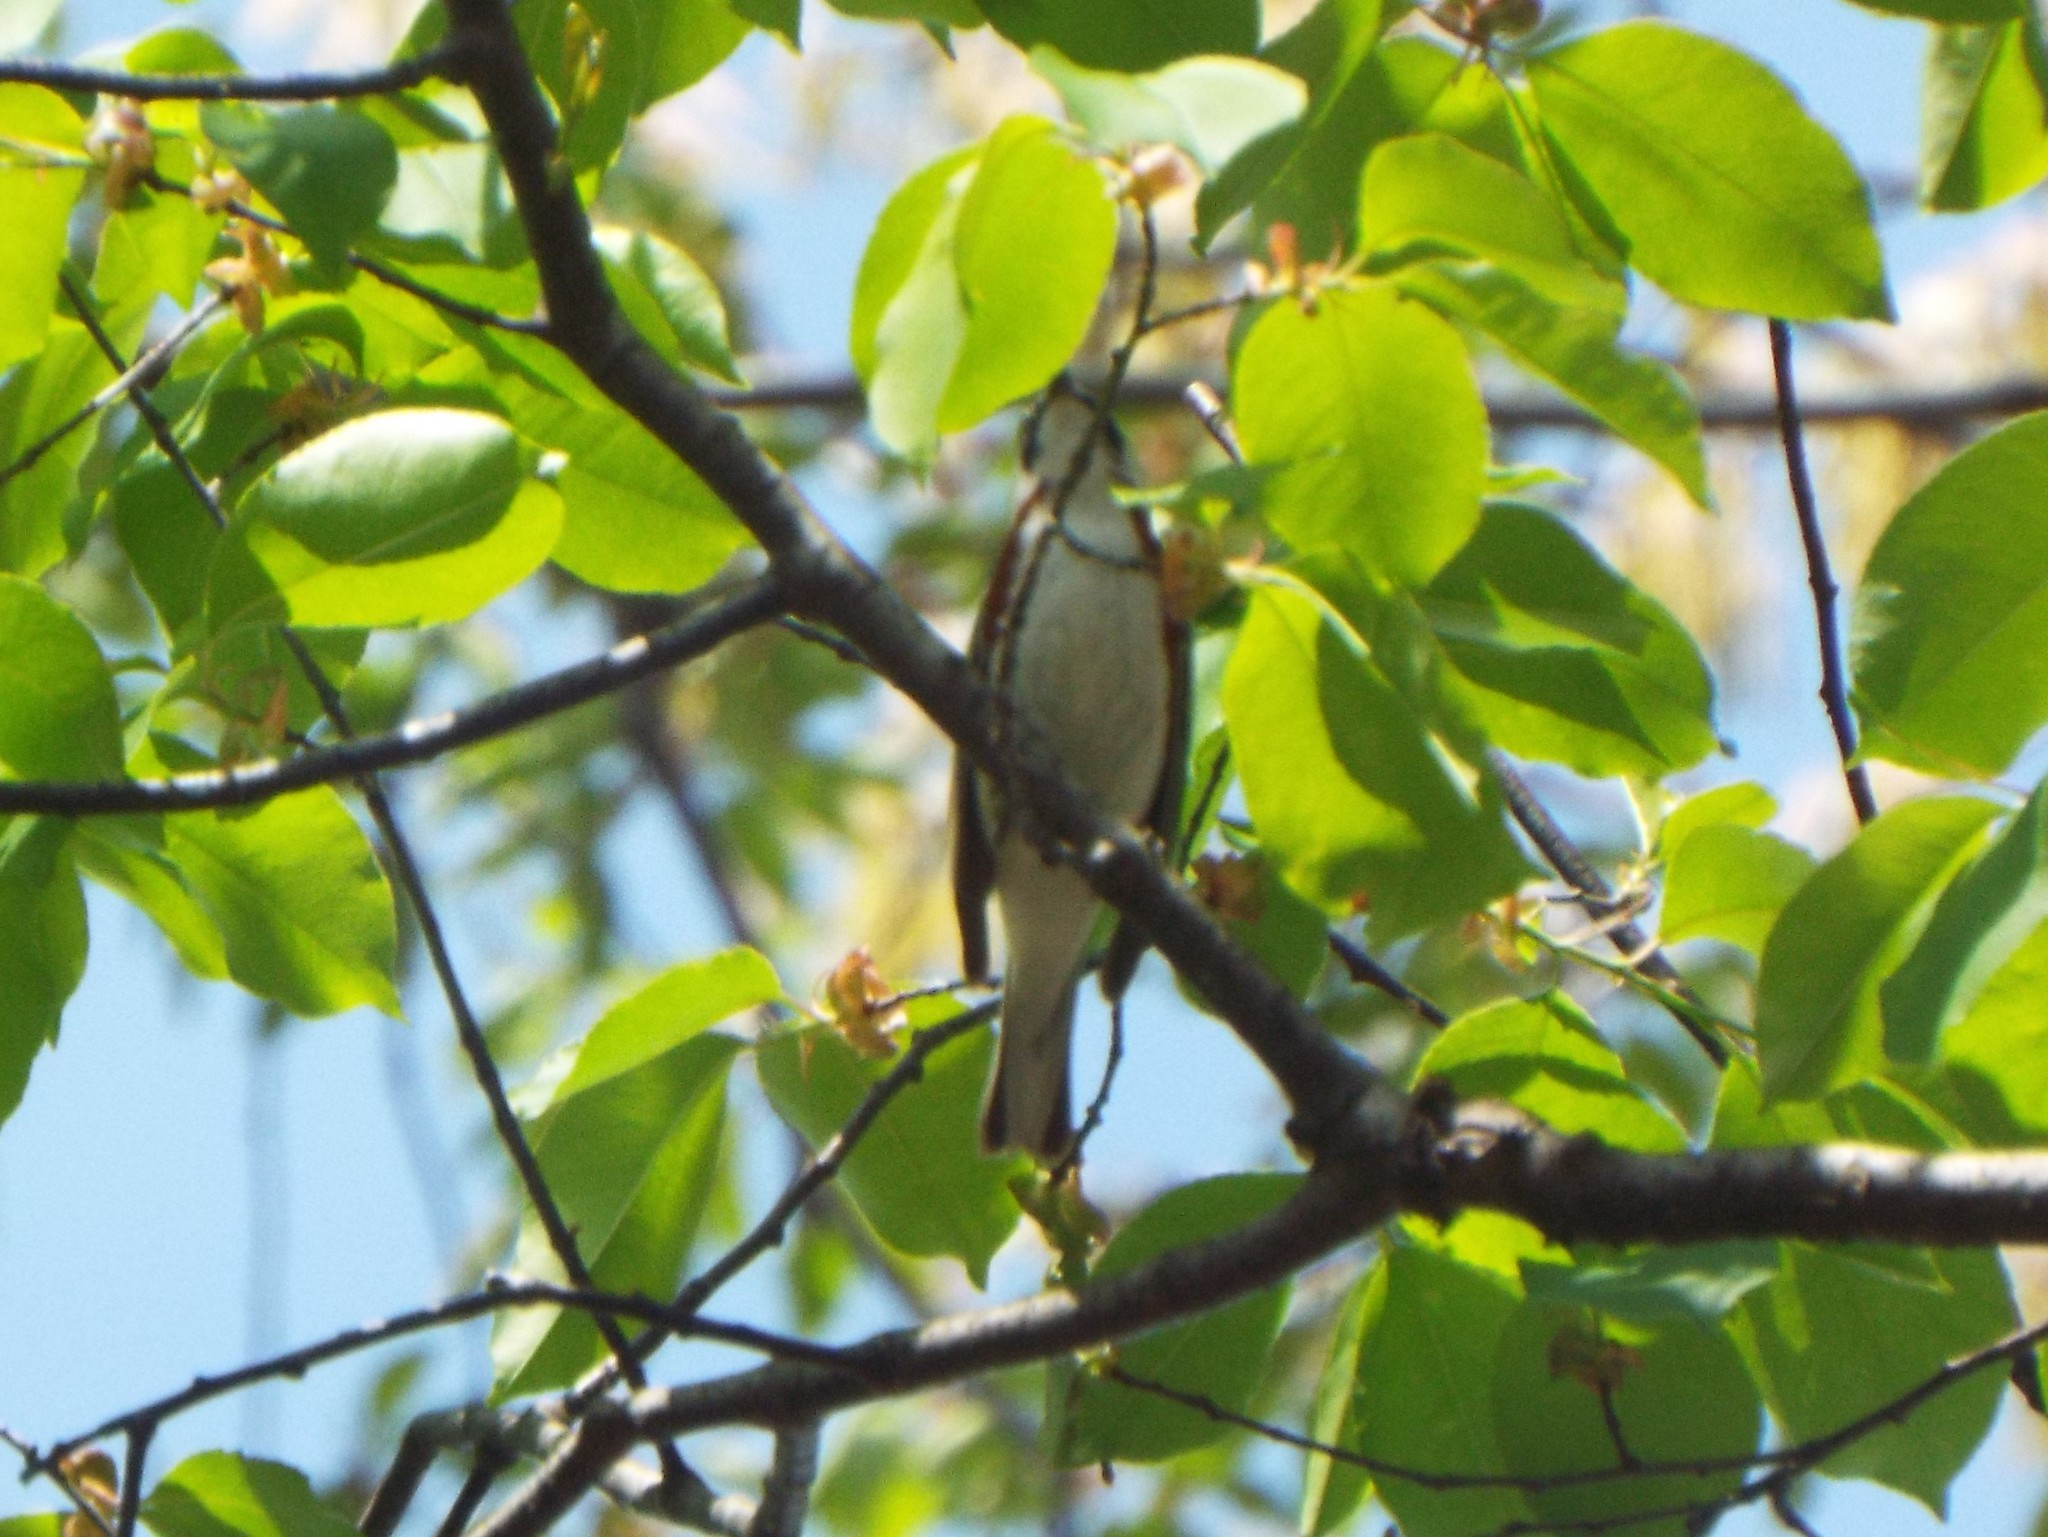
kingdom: Animalia
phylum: Chordata
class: Aves
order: Passeriformes
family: Parulidae
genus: Setophaga
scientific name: Setophaga pensylvanica
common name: Chestnut-sided warbler
